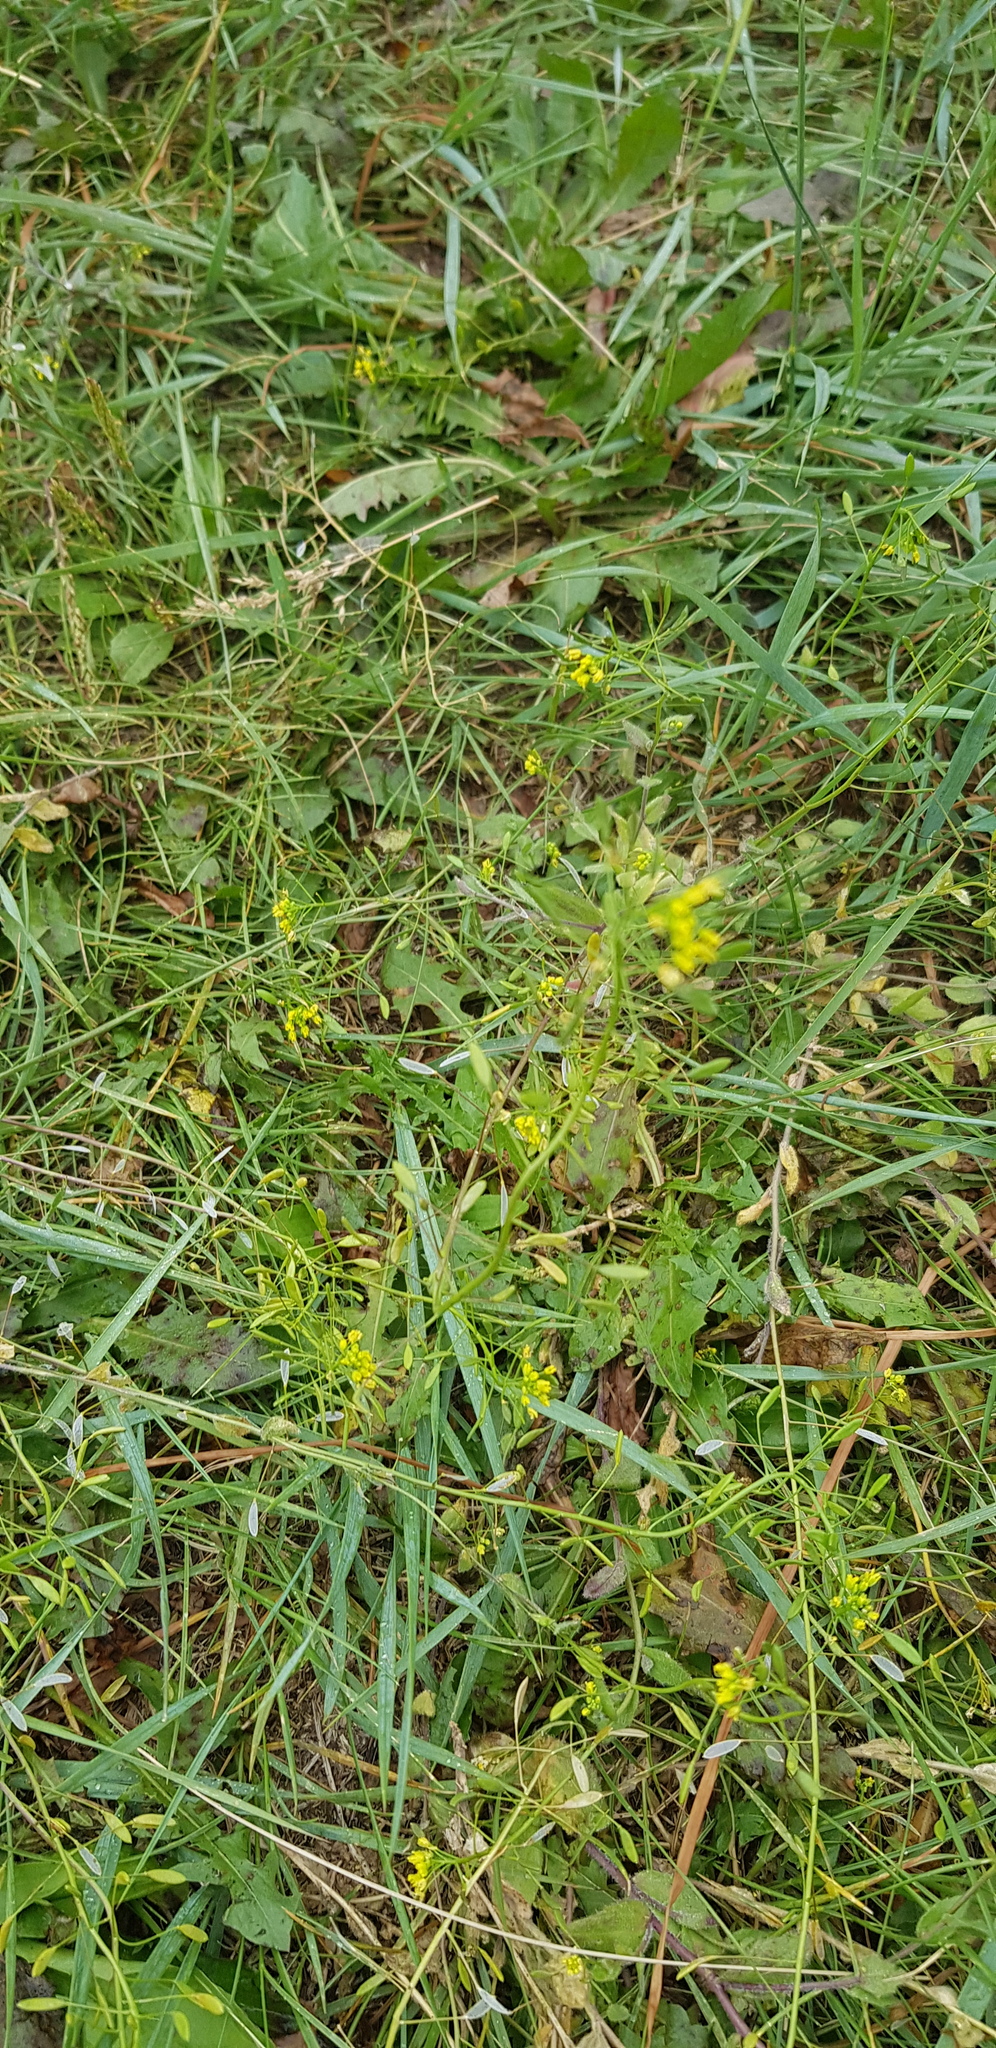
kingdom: Plantae
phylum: Tracheophyta
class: Magnoliopsida
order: Brassicales
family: Brassicaceae
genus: Draba
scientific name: Draba nemorosa
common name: Wood whitlow-grass
